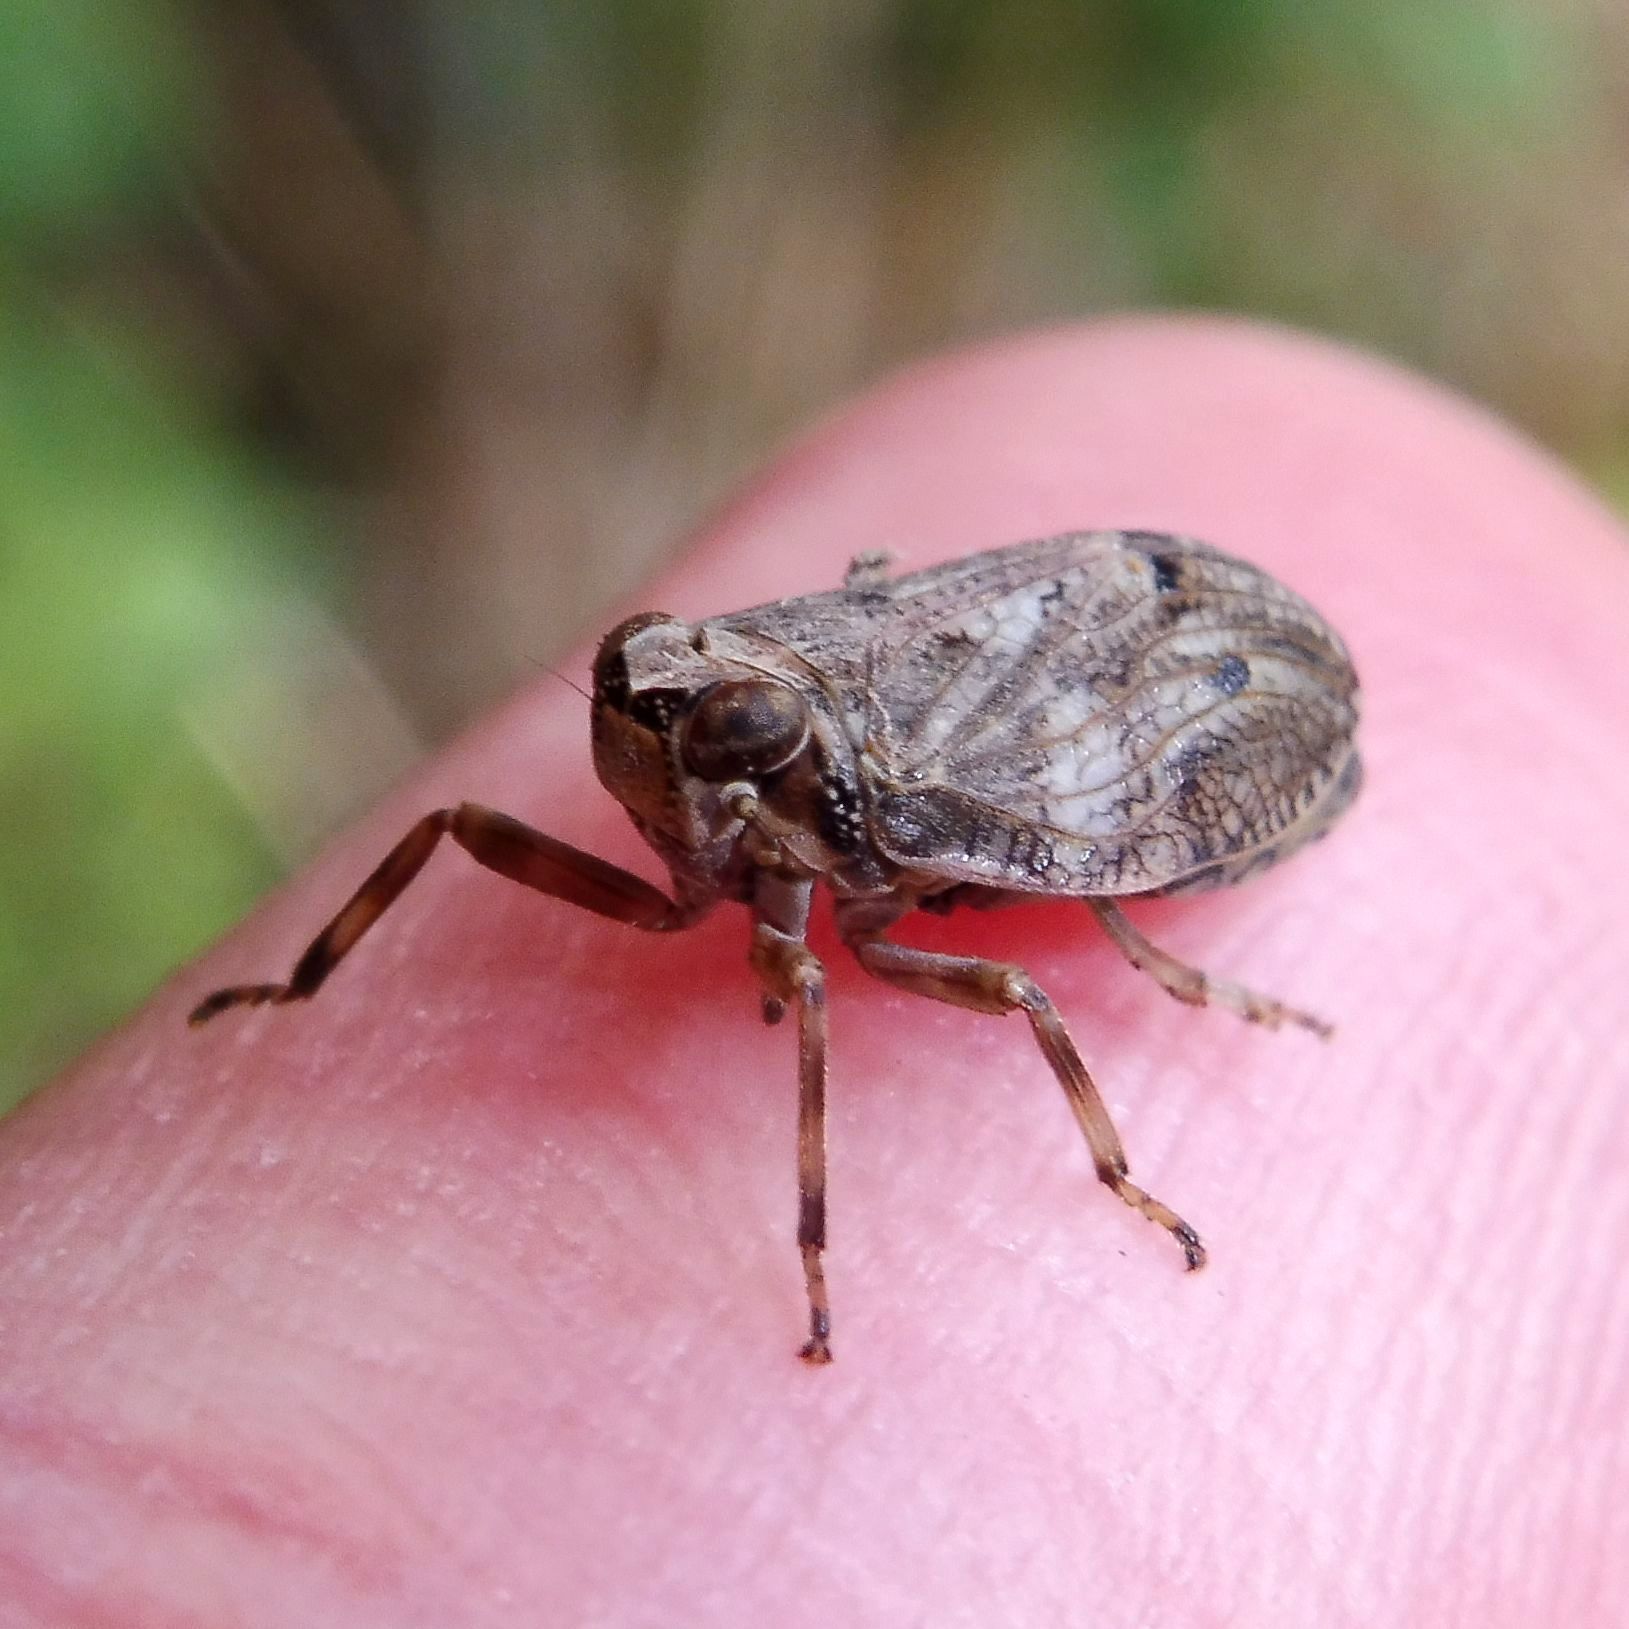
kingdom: Animalia
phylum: Arthropoda
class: Insecta
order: Hemiptera
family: Issidae
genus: Issus
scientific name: Issus coleoptratus
